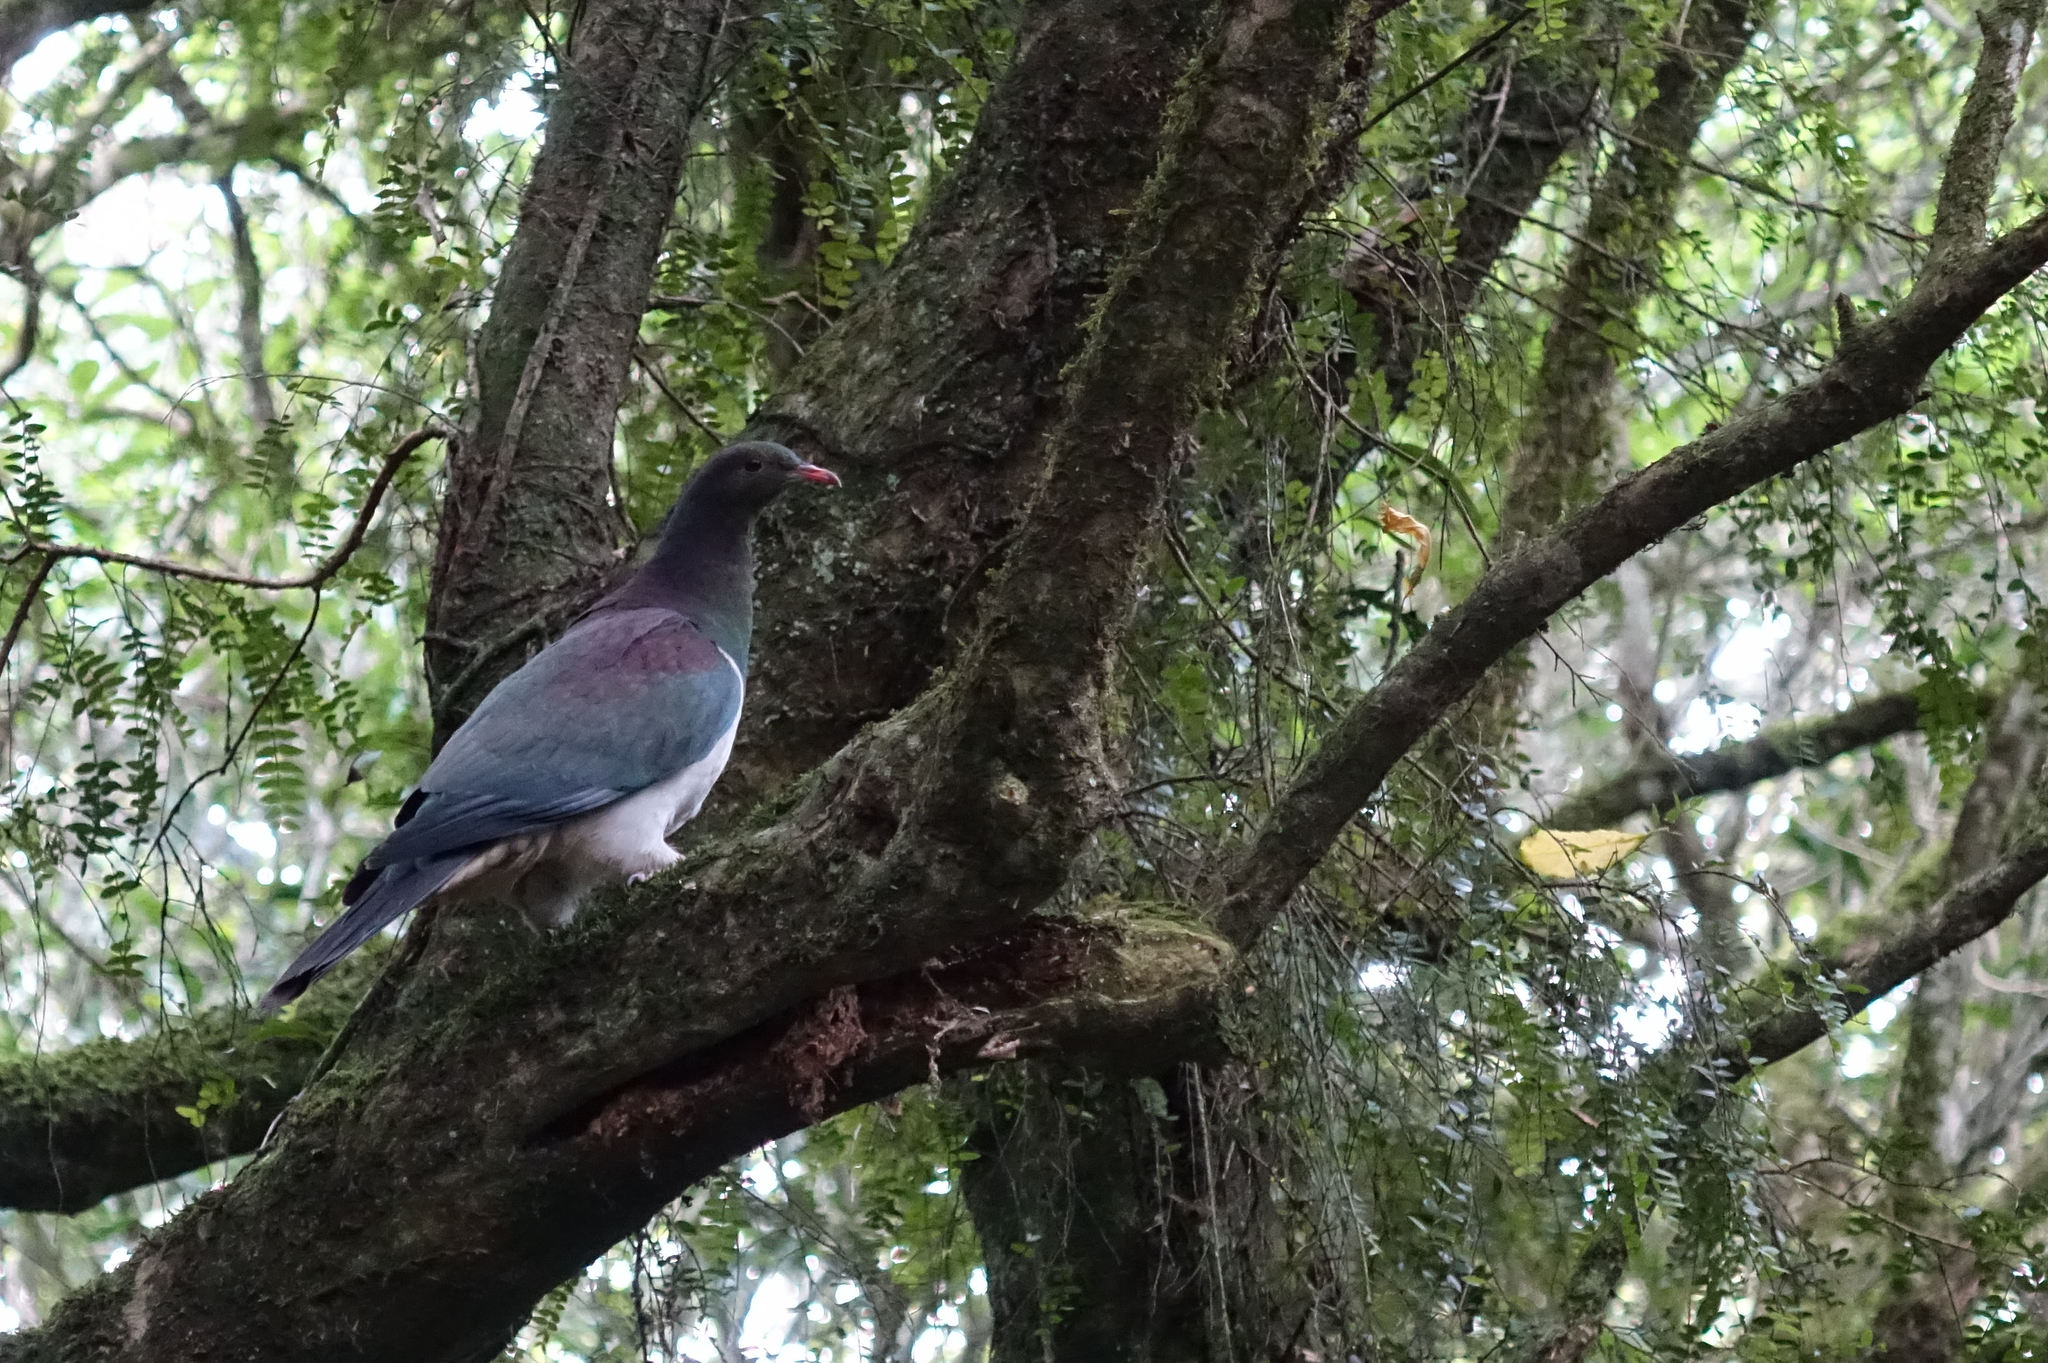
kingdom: Animalia
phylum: Chordata
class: Aves
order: Columbiformes
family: Columbidae
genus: Hemiphaga
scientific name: Hemiphaga novaeseelandiae
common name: New zealand pigeon
